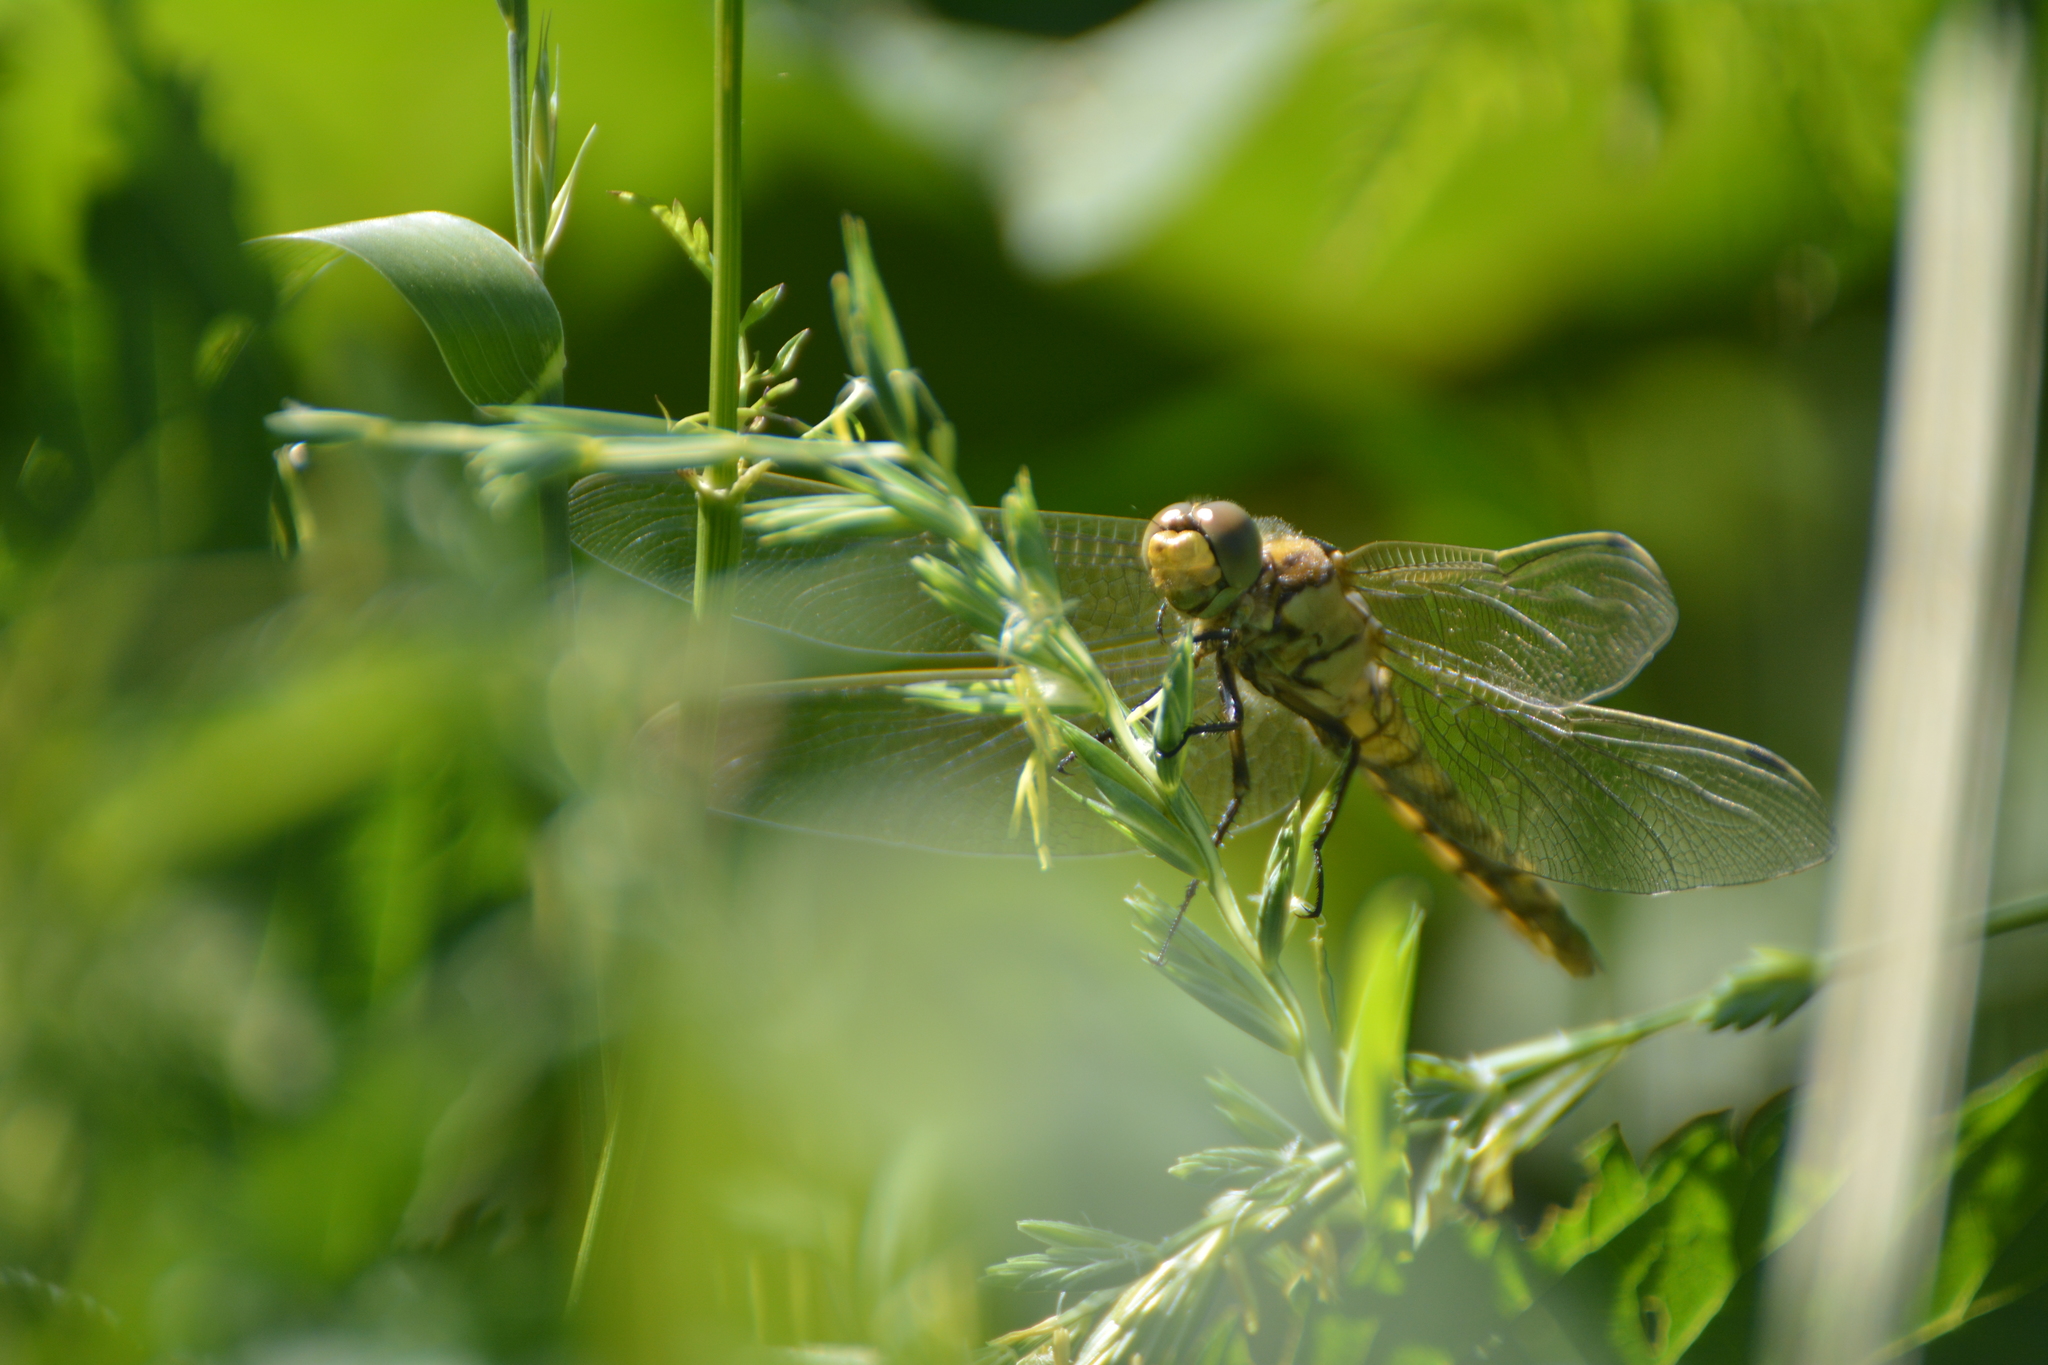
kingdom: Animalia
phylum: Arthropoda
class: Insecta
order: Odonata
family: Libellulidae
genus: Orthetrum
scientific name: Orthetrum cancellatum
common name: Black-tailed skimmer
